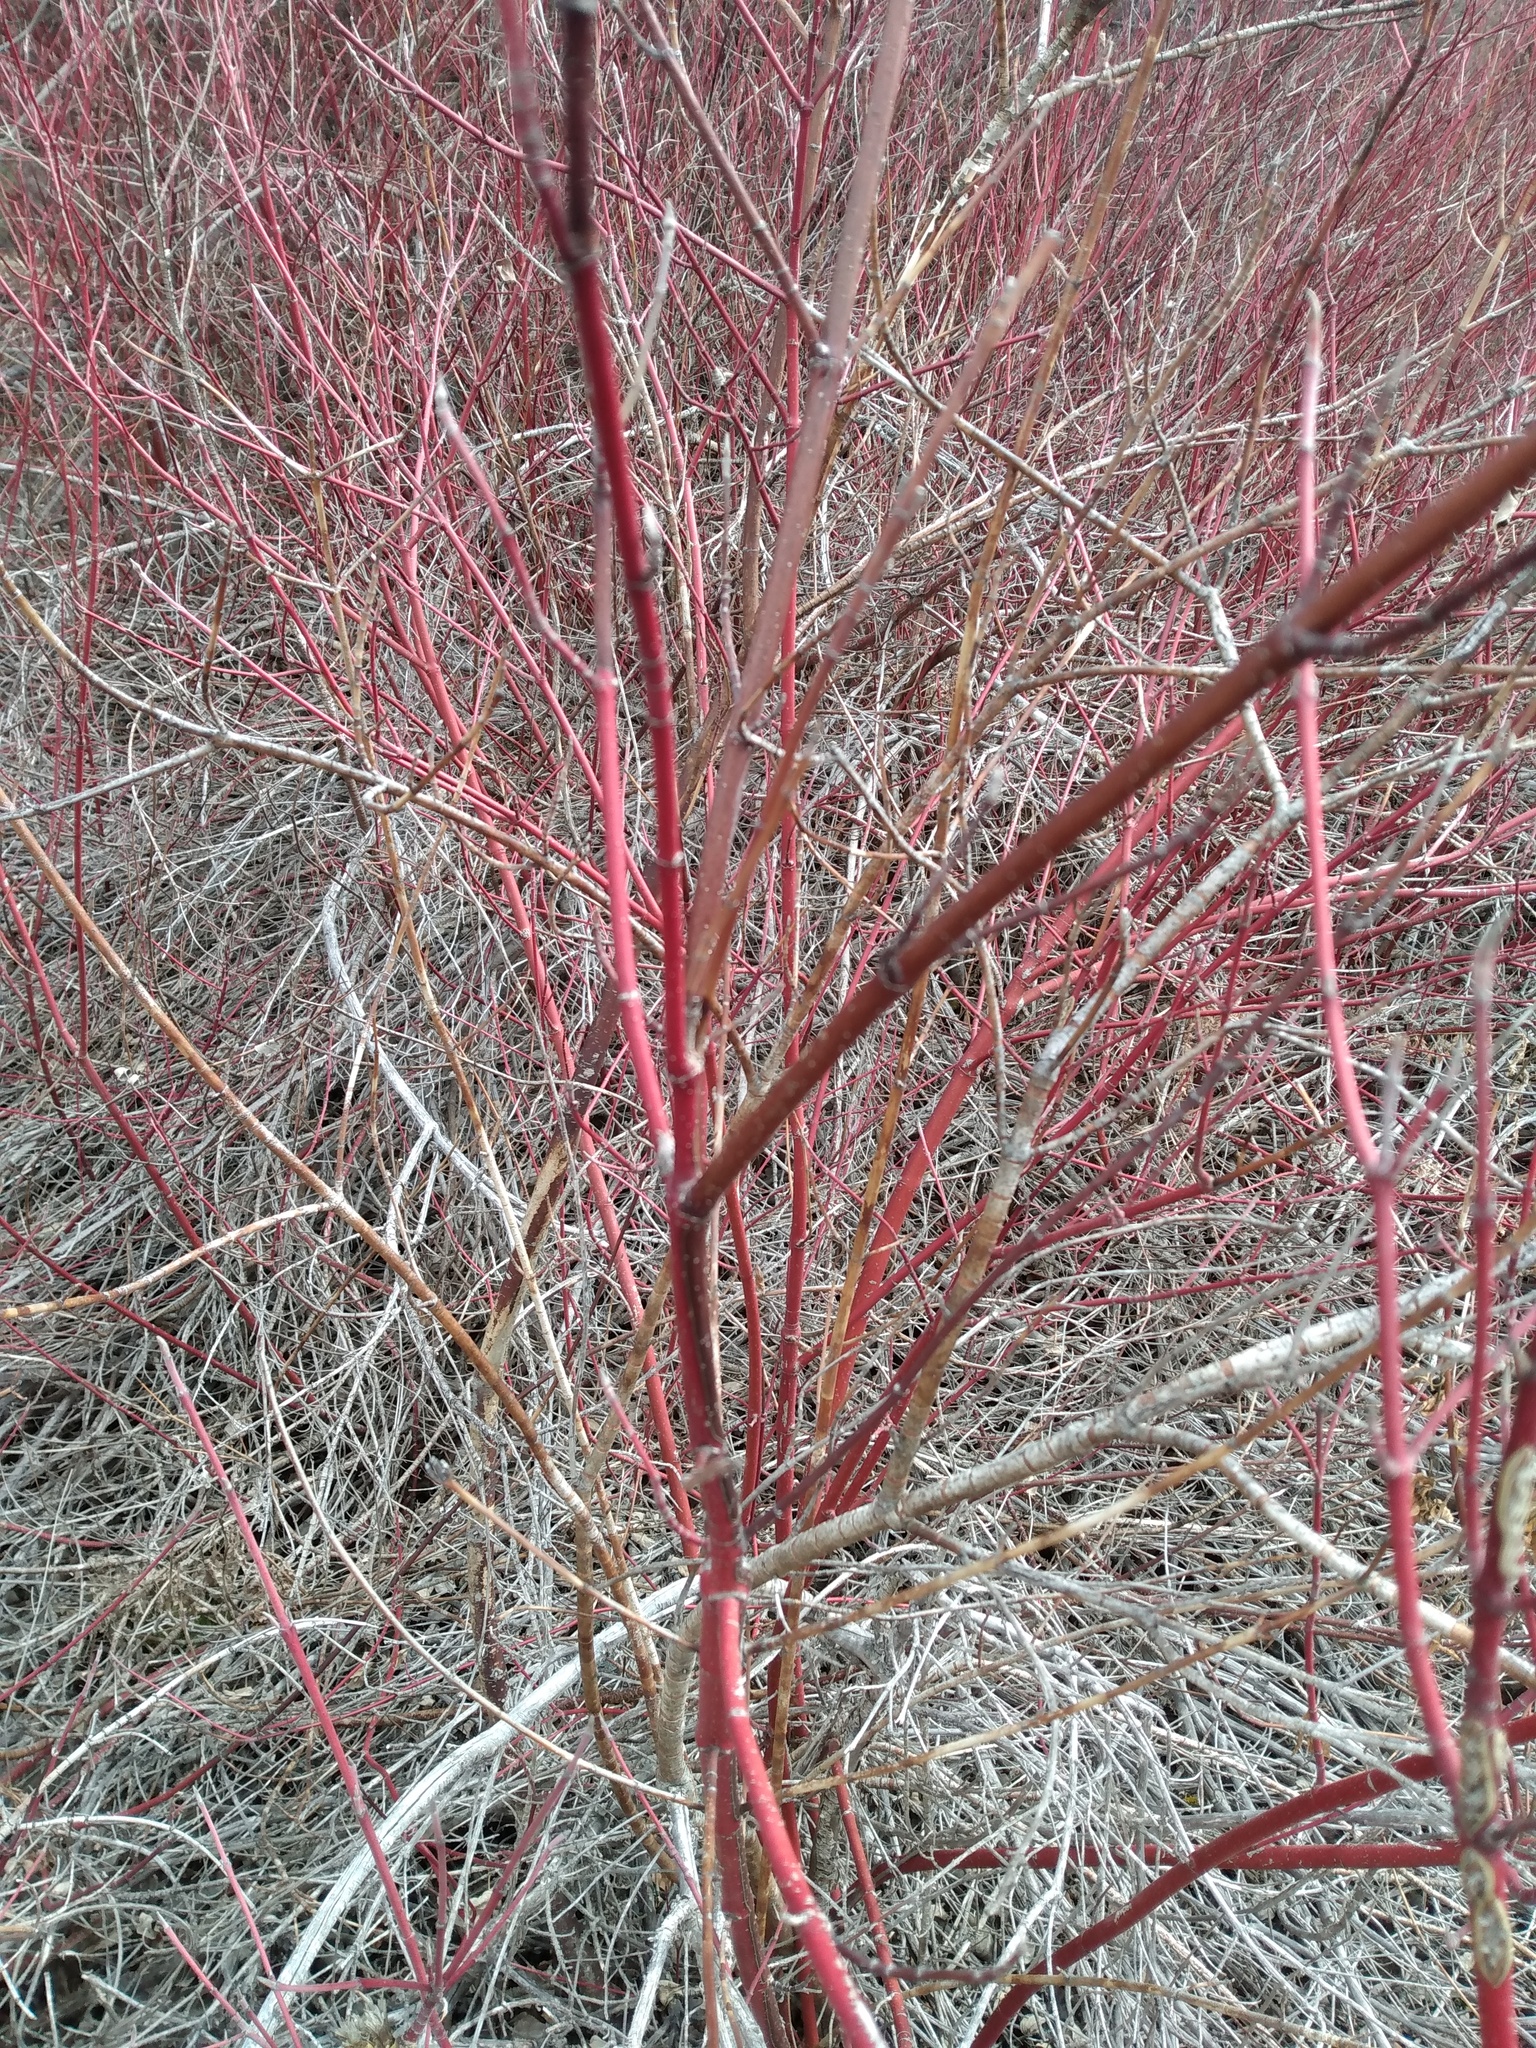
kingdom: Plantae
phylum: Tracheophyta
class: Magnoliopsida
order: Cornales
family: Cornaceae
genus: Cornus
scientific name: Cornus sericea
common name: Red-osier dogwood
